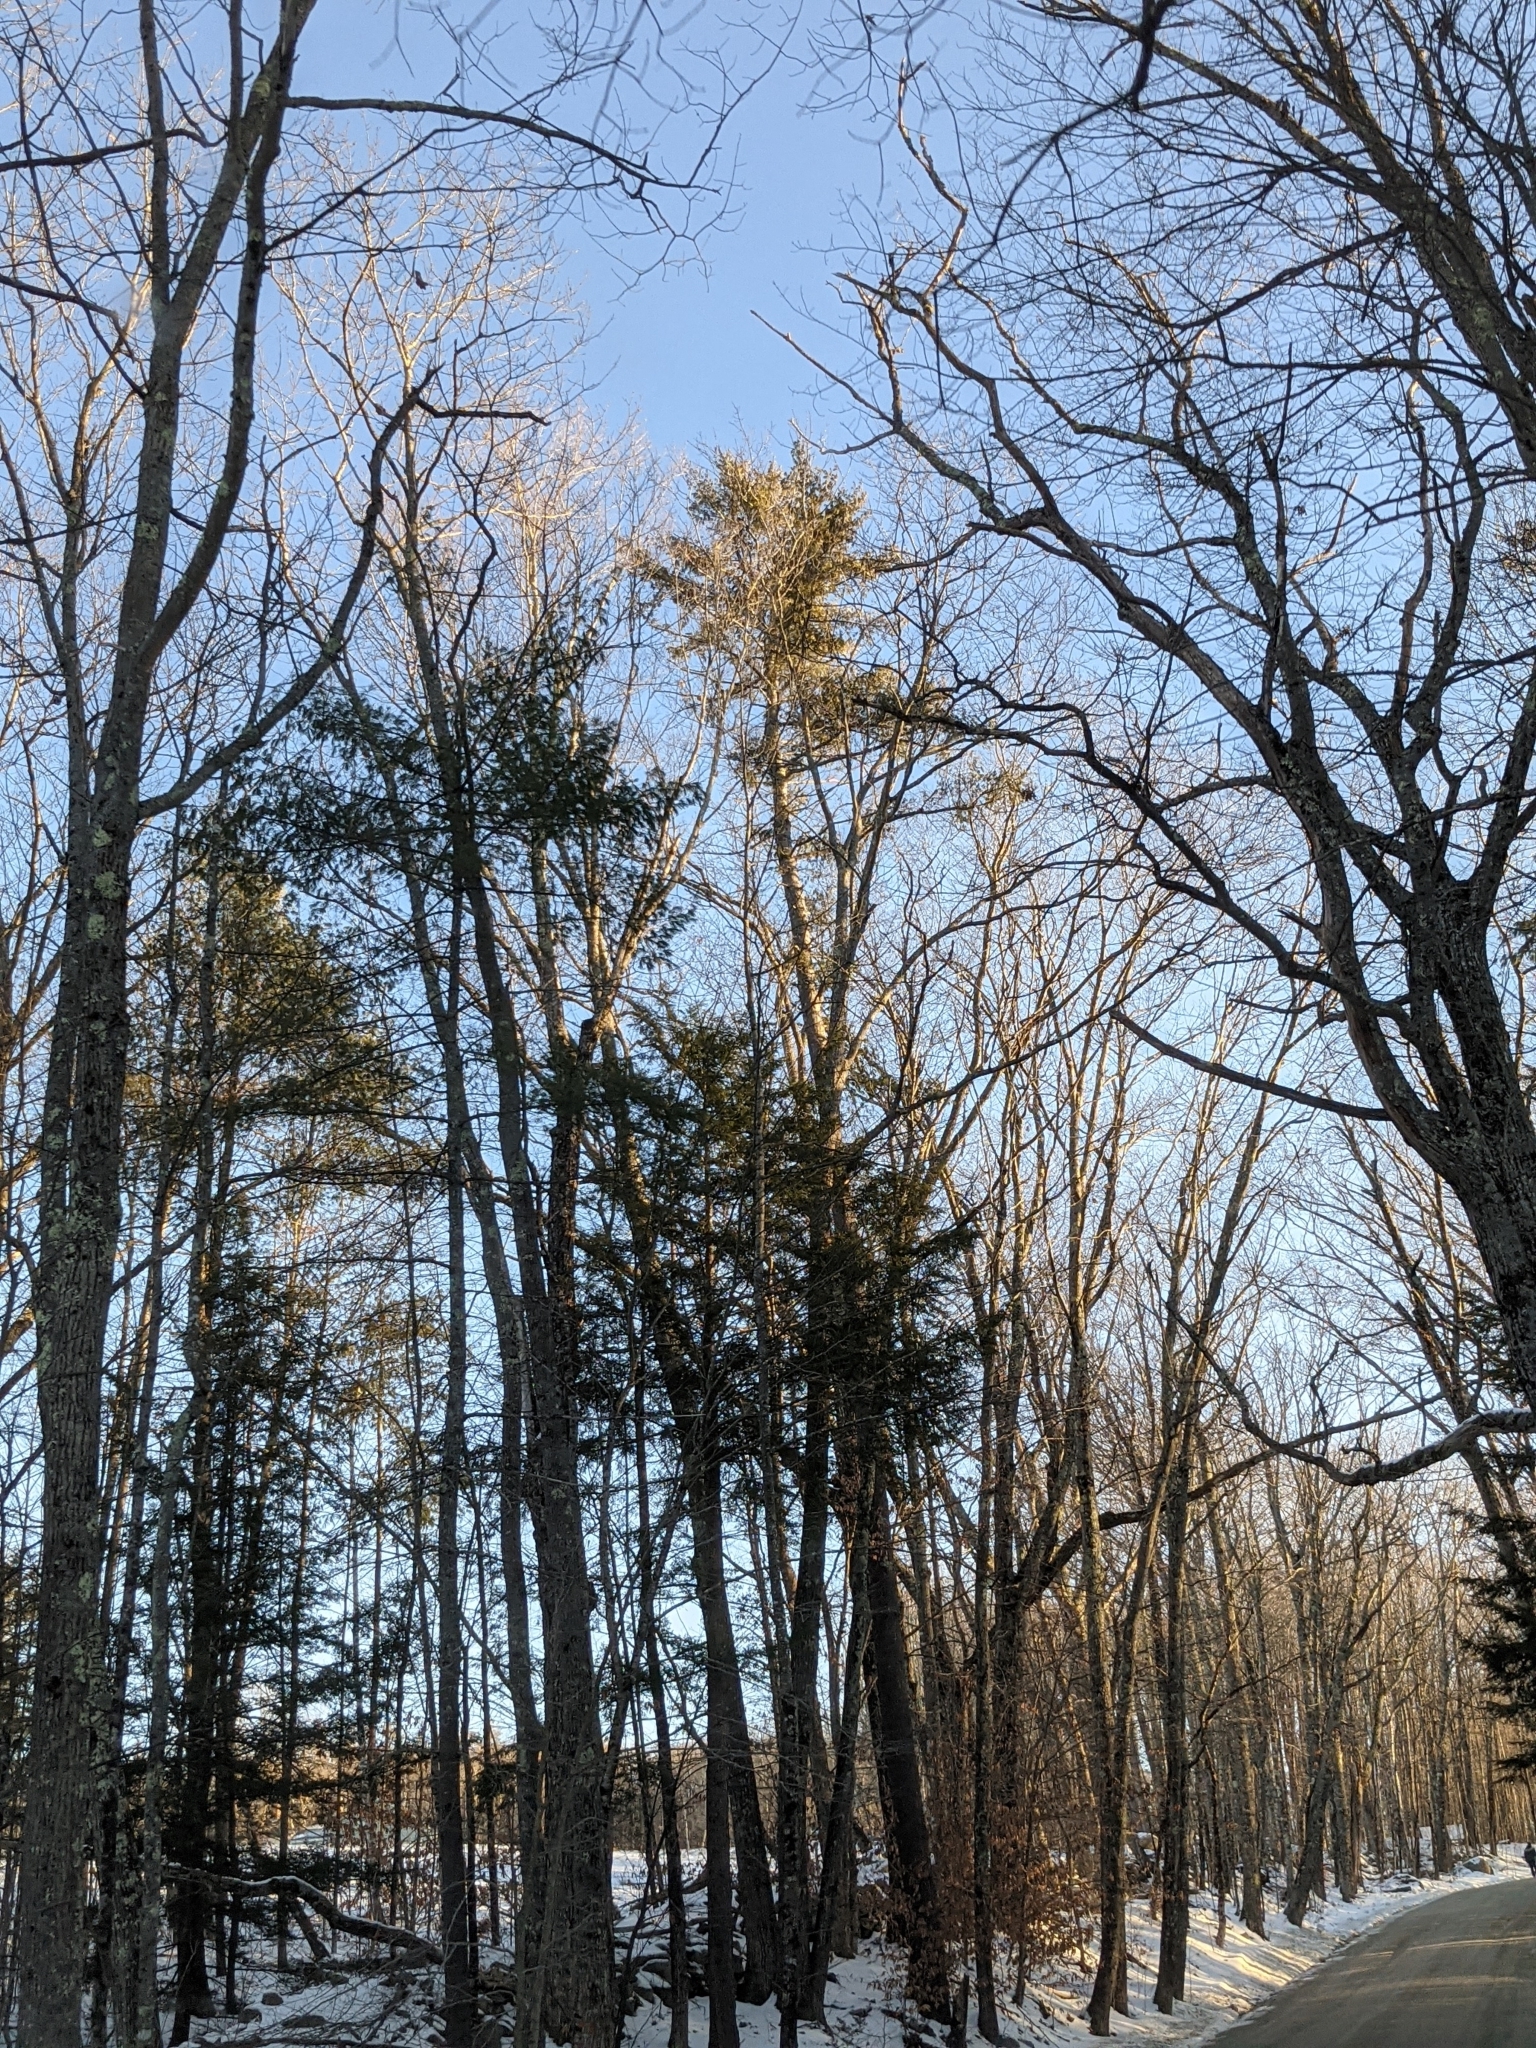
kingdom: Plantae
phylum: Tracheophyta
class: Pinopsida
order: Pinales
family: Pinaceae
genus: Pinus
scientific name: Pinus strobus
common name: Weymouth pine
